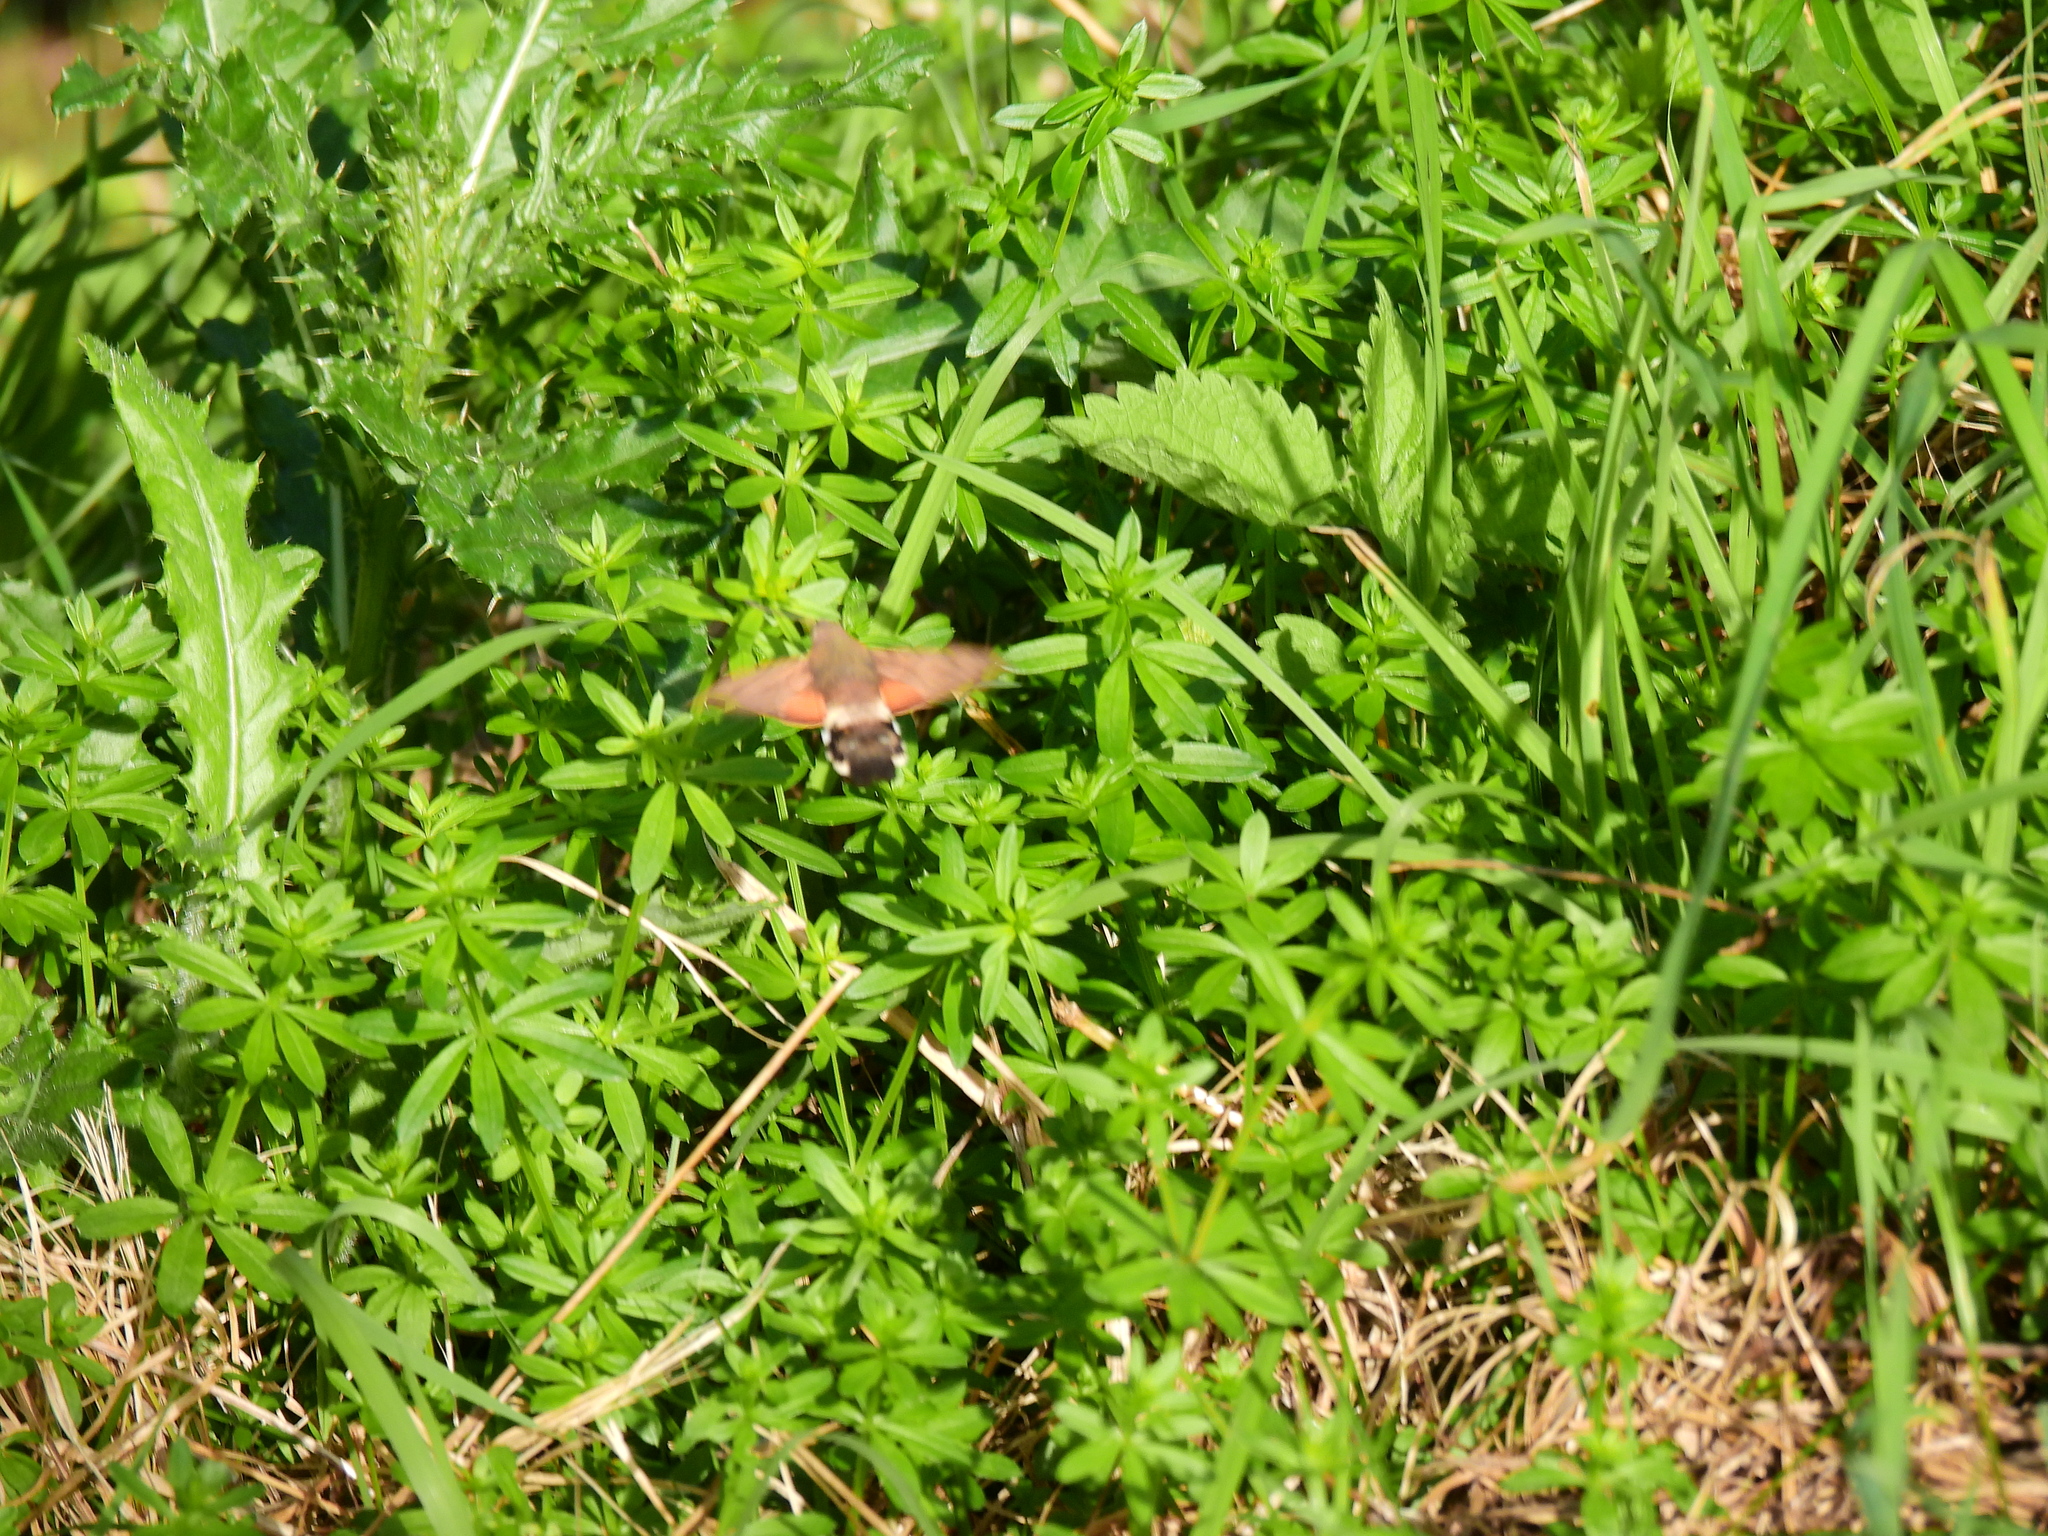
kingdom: Animalia
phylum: Arthropoda
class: Insecta
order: Lepidoptera
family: Sphingidae
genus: Macroglossum
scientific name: Macroglossum stellatarum
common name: Humming-bird hawk-moth
